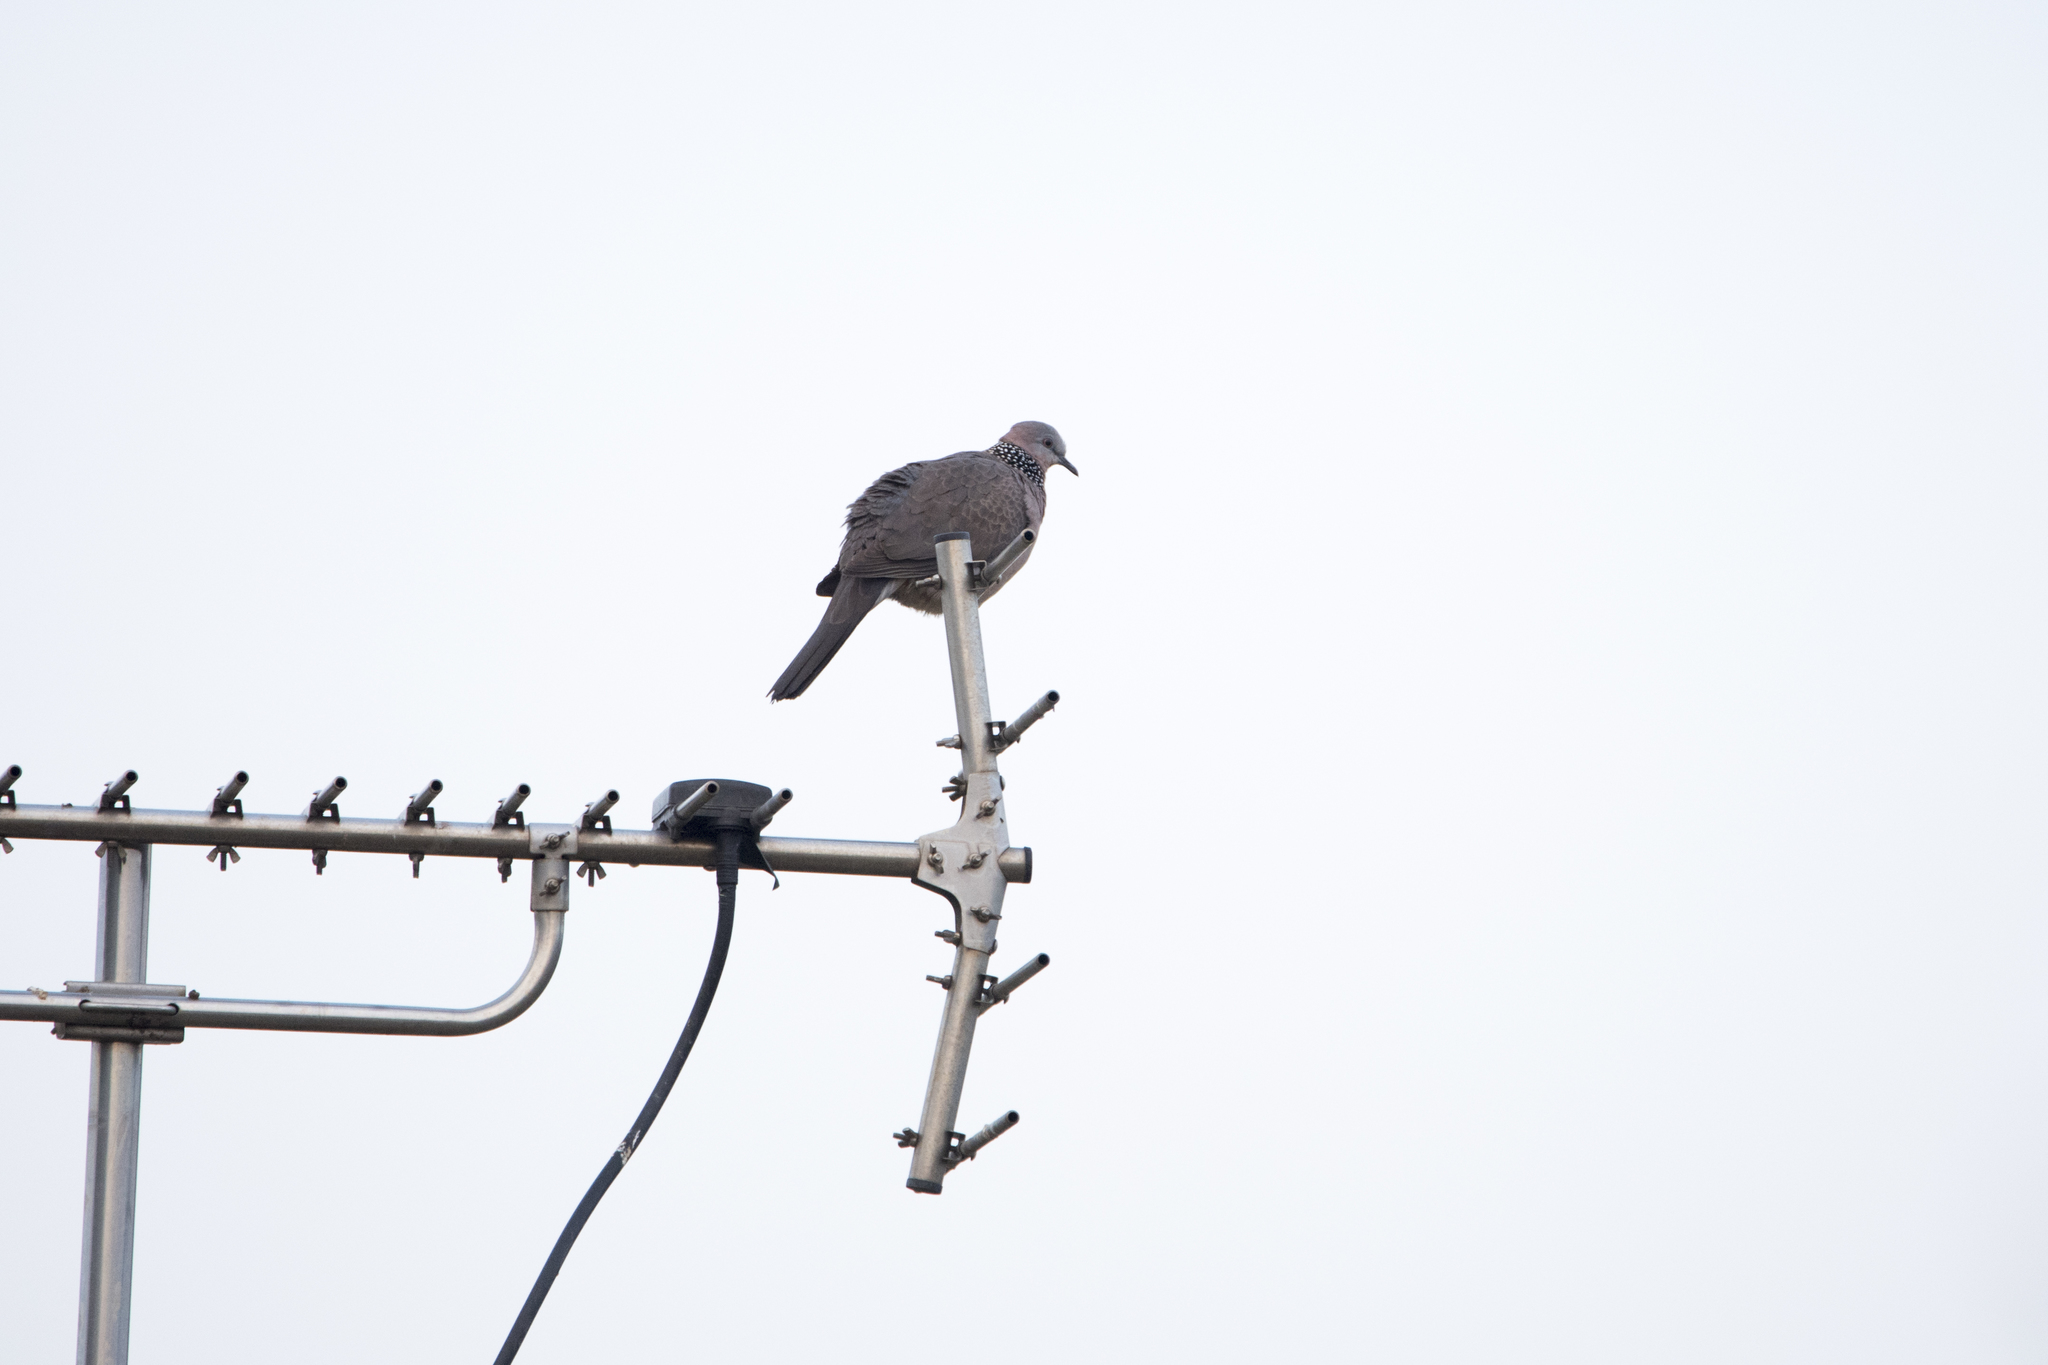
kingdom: Animalia
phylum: Chordata
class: Aves
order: Columbiformes
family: Columbidae
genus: Spilopelia
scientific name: Spilopelia chinensis
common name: Spotted dove
